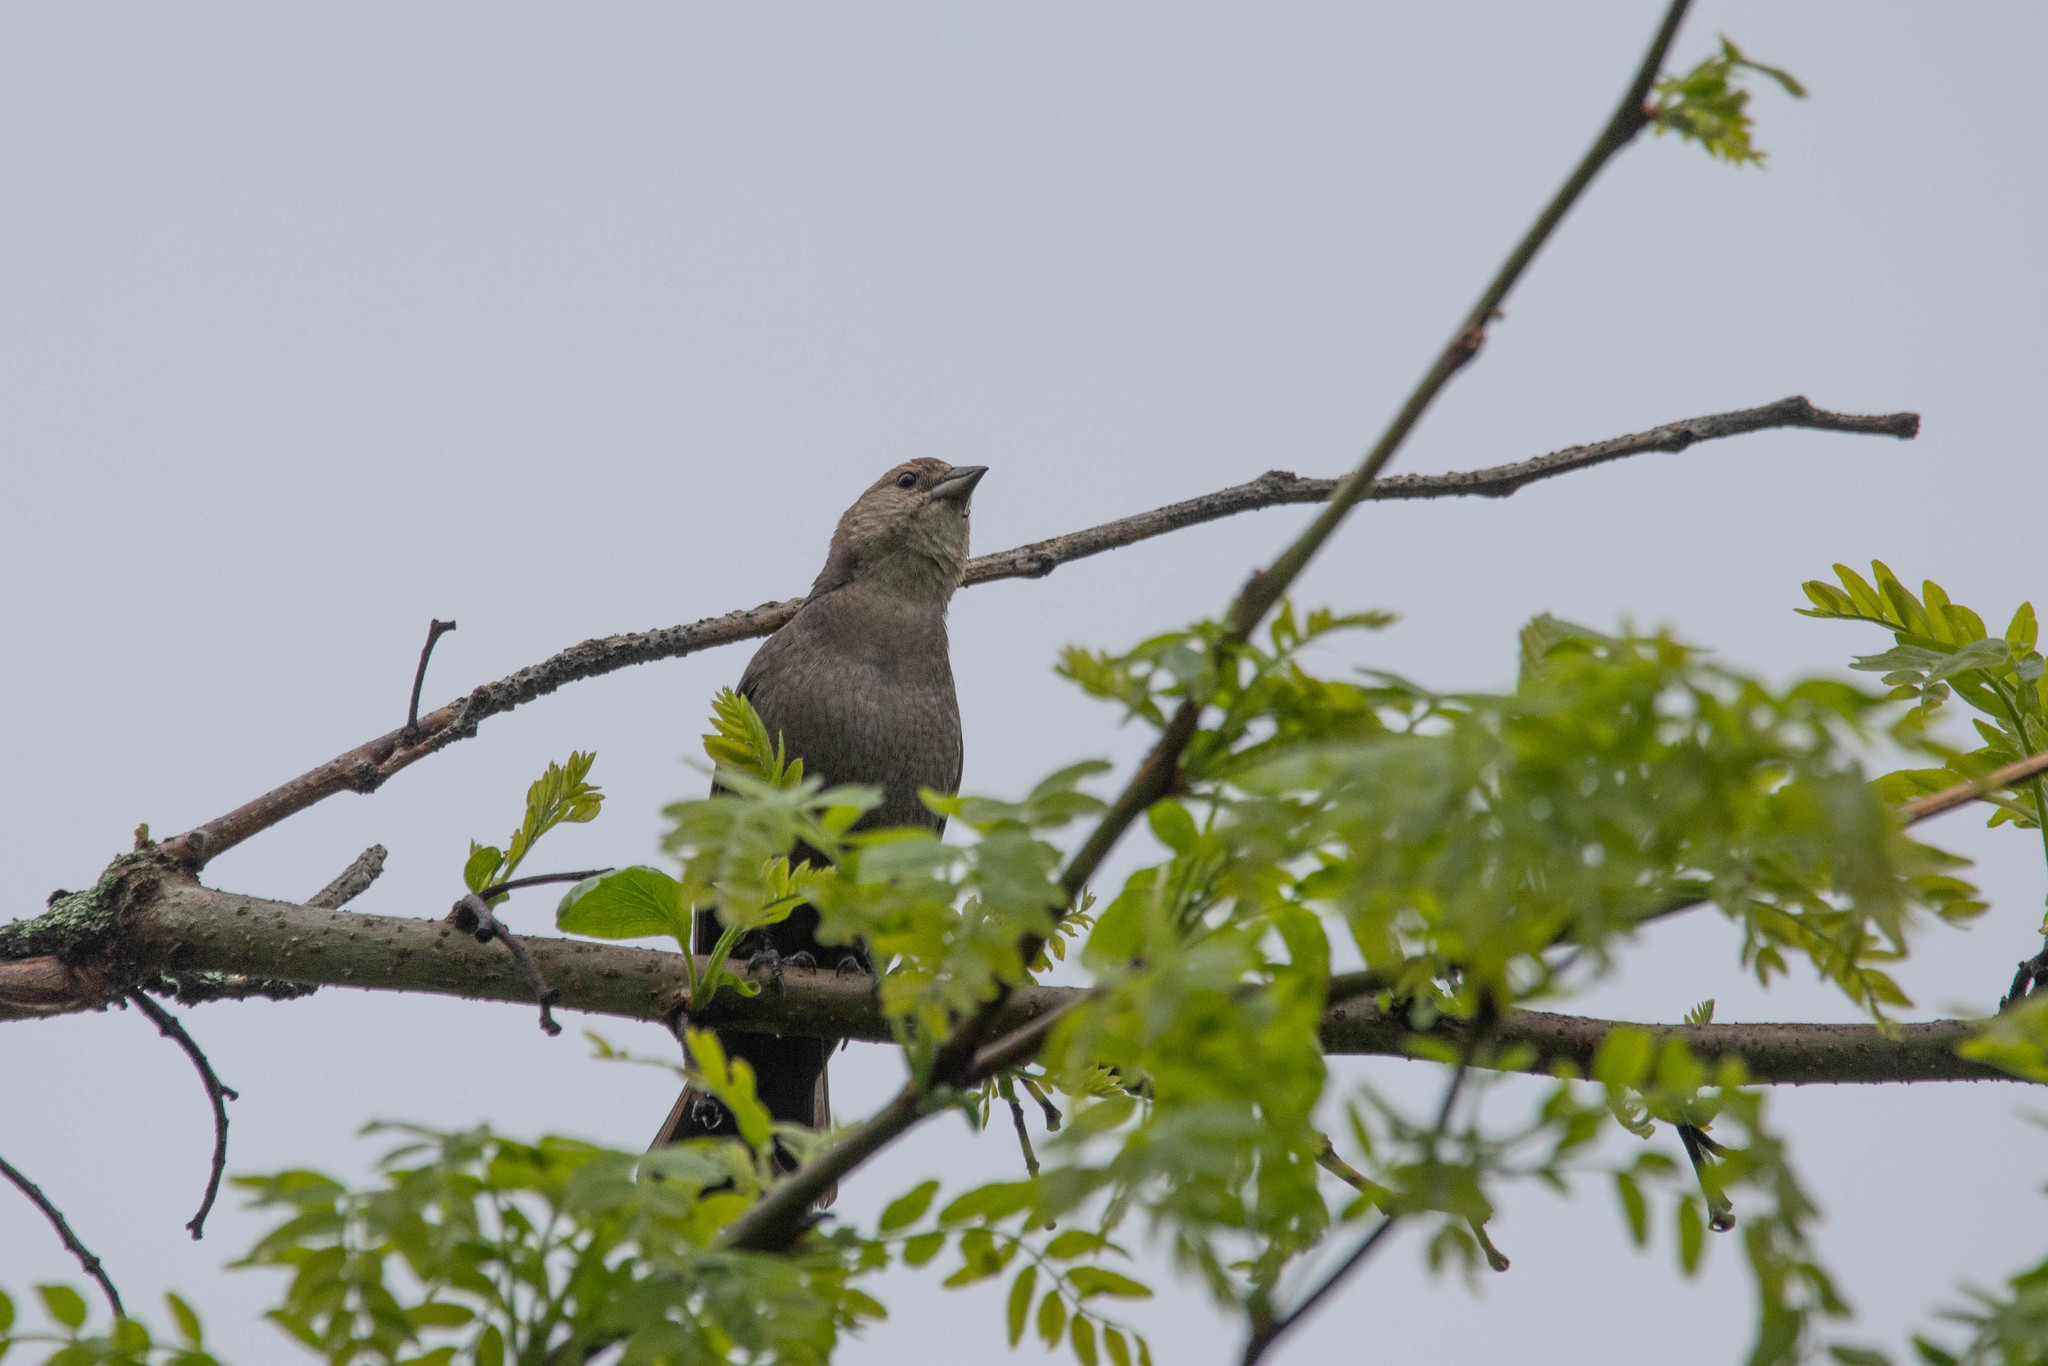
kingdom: Animalia
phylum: Chordata
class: Aves
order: Passeriformes
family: Icteridae
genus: Molothrus
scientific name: Molothrus ater
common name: Brown-headed cowbird
